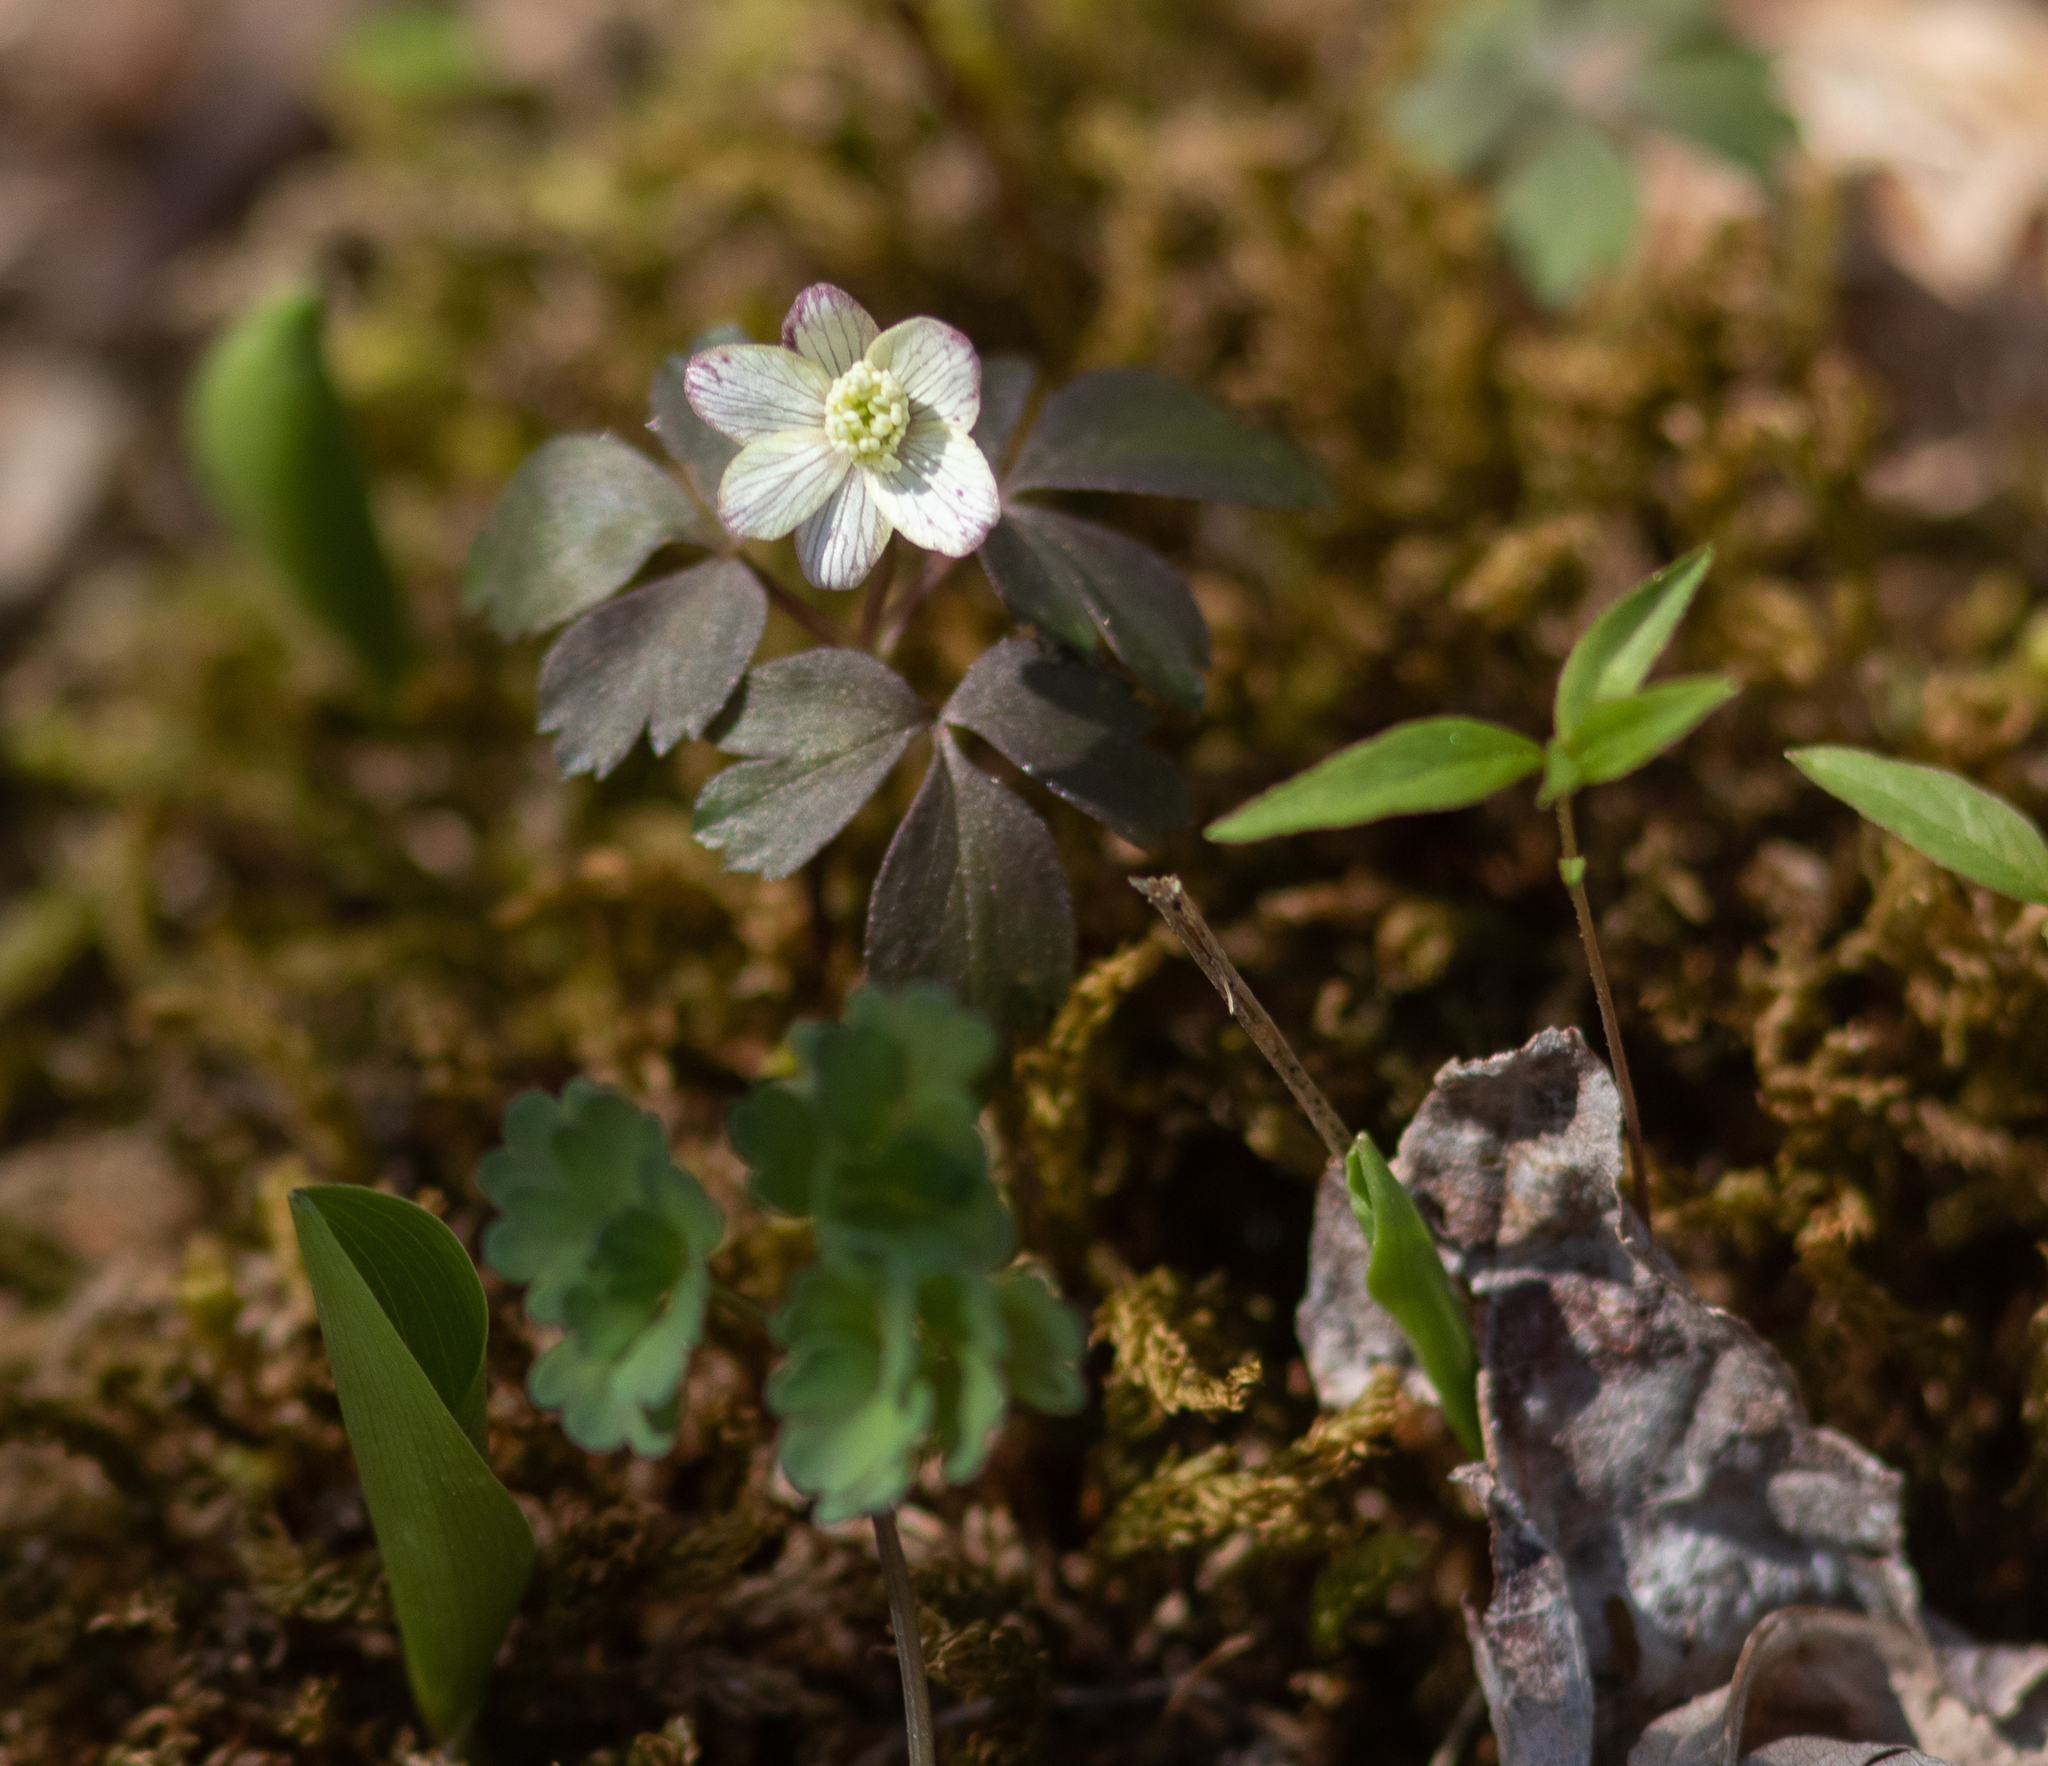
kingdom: Plantae
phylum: Tracheophyta
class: Magnoliopsida
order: Ranunculales
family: Ranunculaceae
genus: Anemone
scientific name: Anemone quinquefolia
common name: Wood anemone
